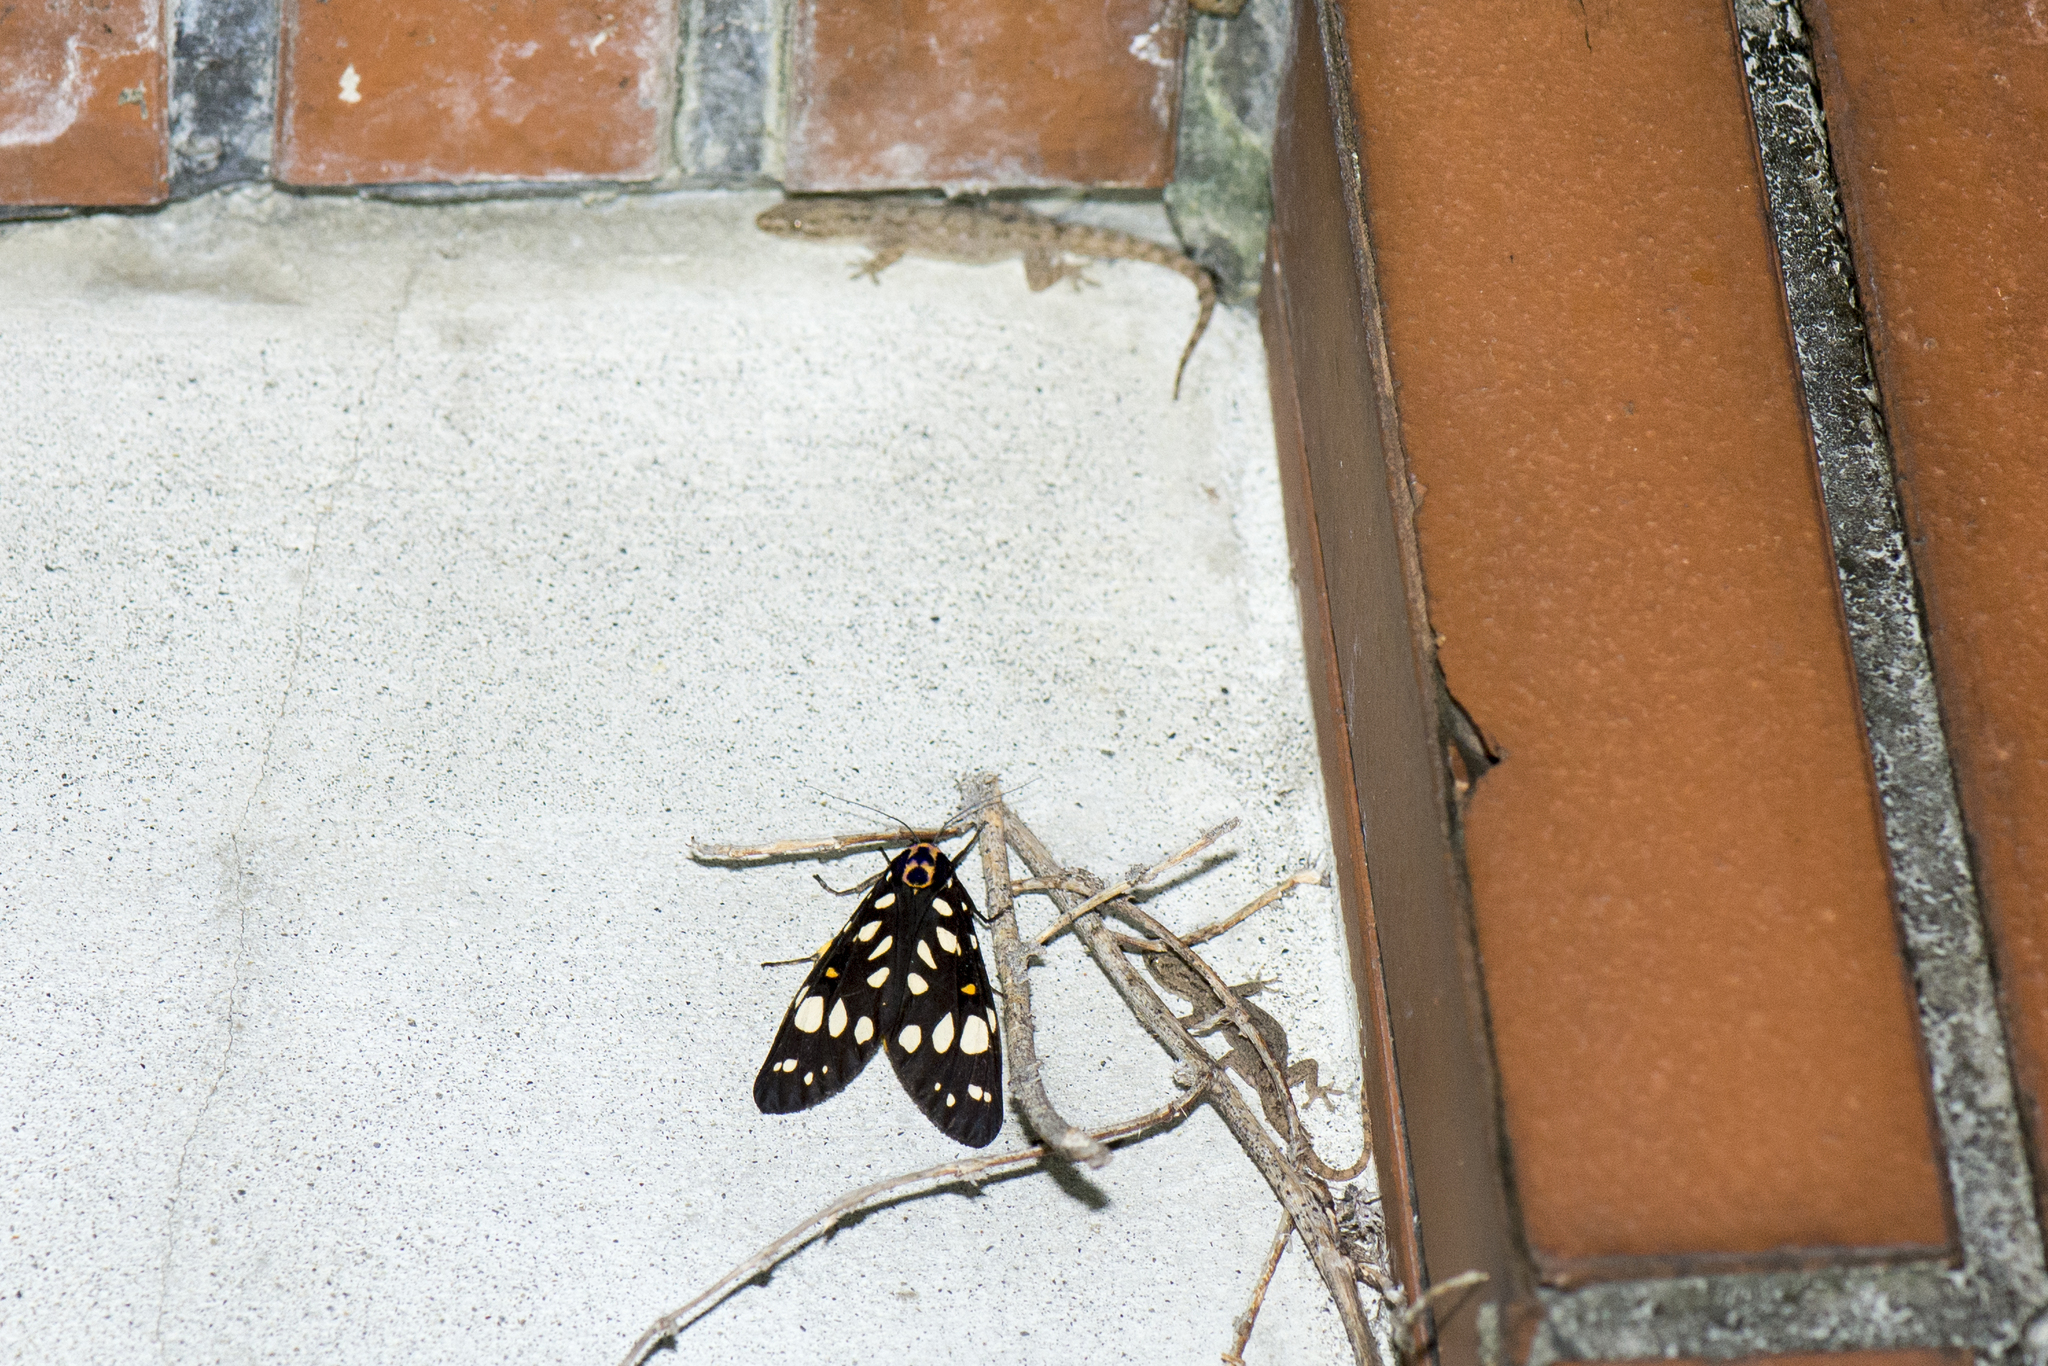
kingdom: Animalia
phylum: Arthropoda
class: Insecta
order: Lepidoptera
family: Erebidae
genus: Aglaomorpha
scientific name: Aglaomorpha histrio
